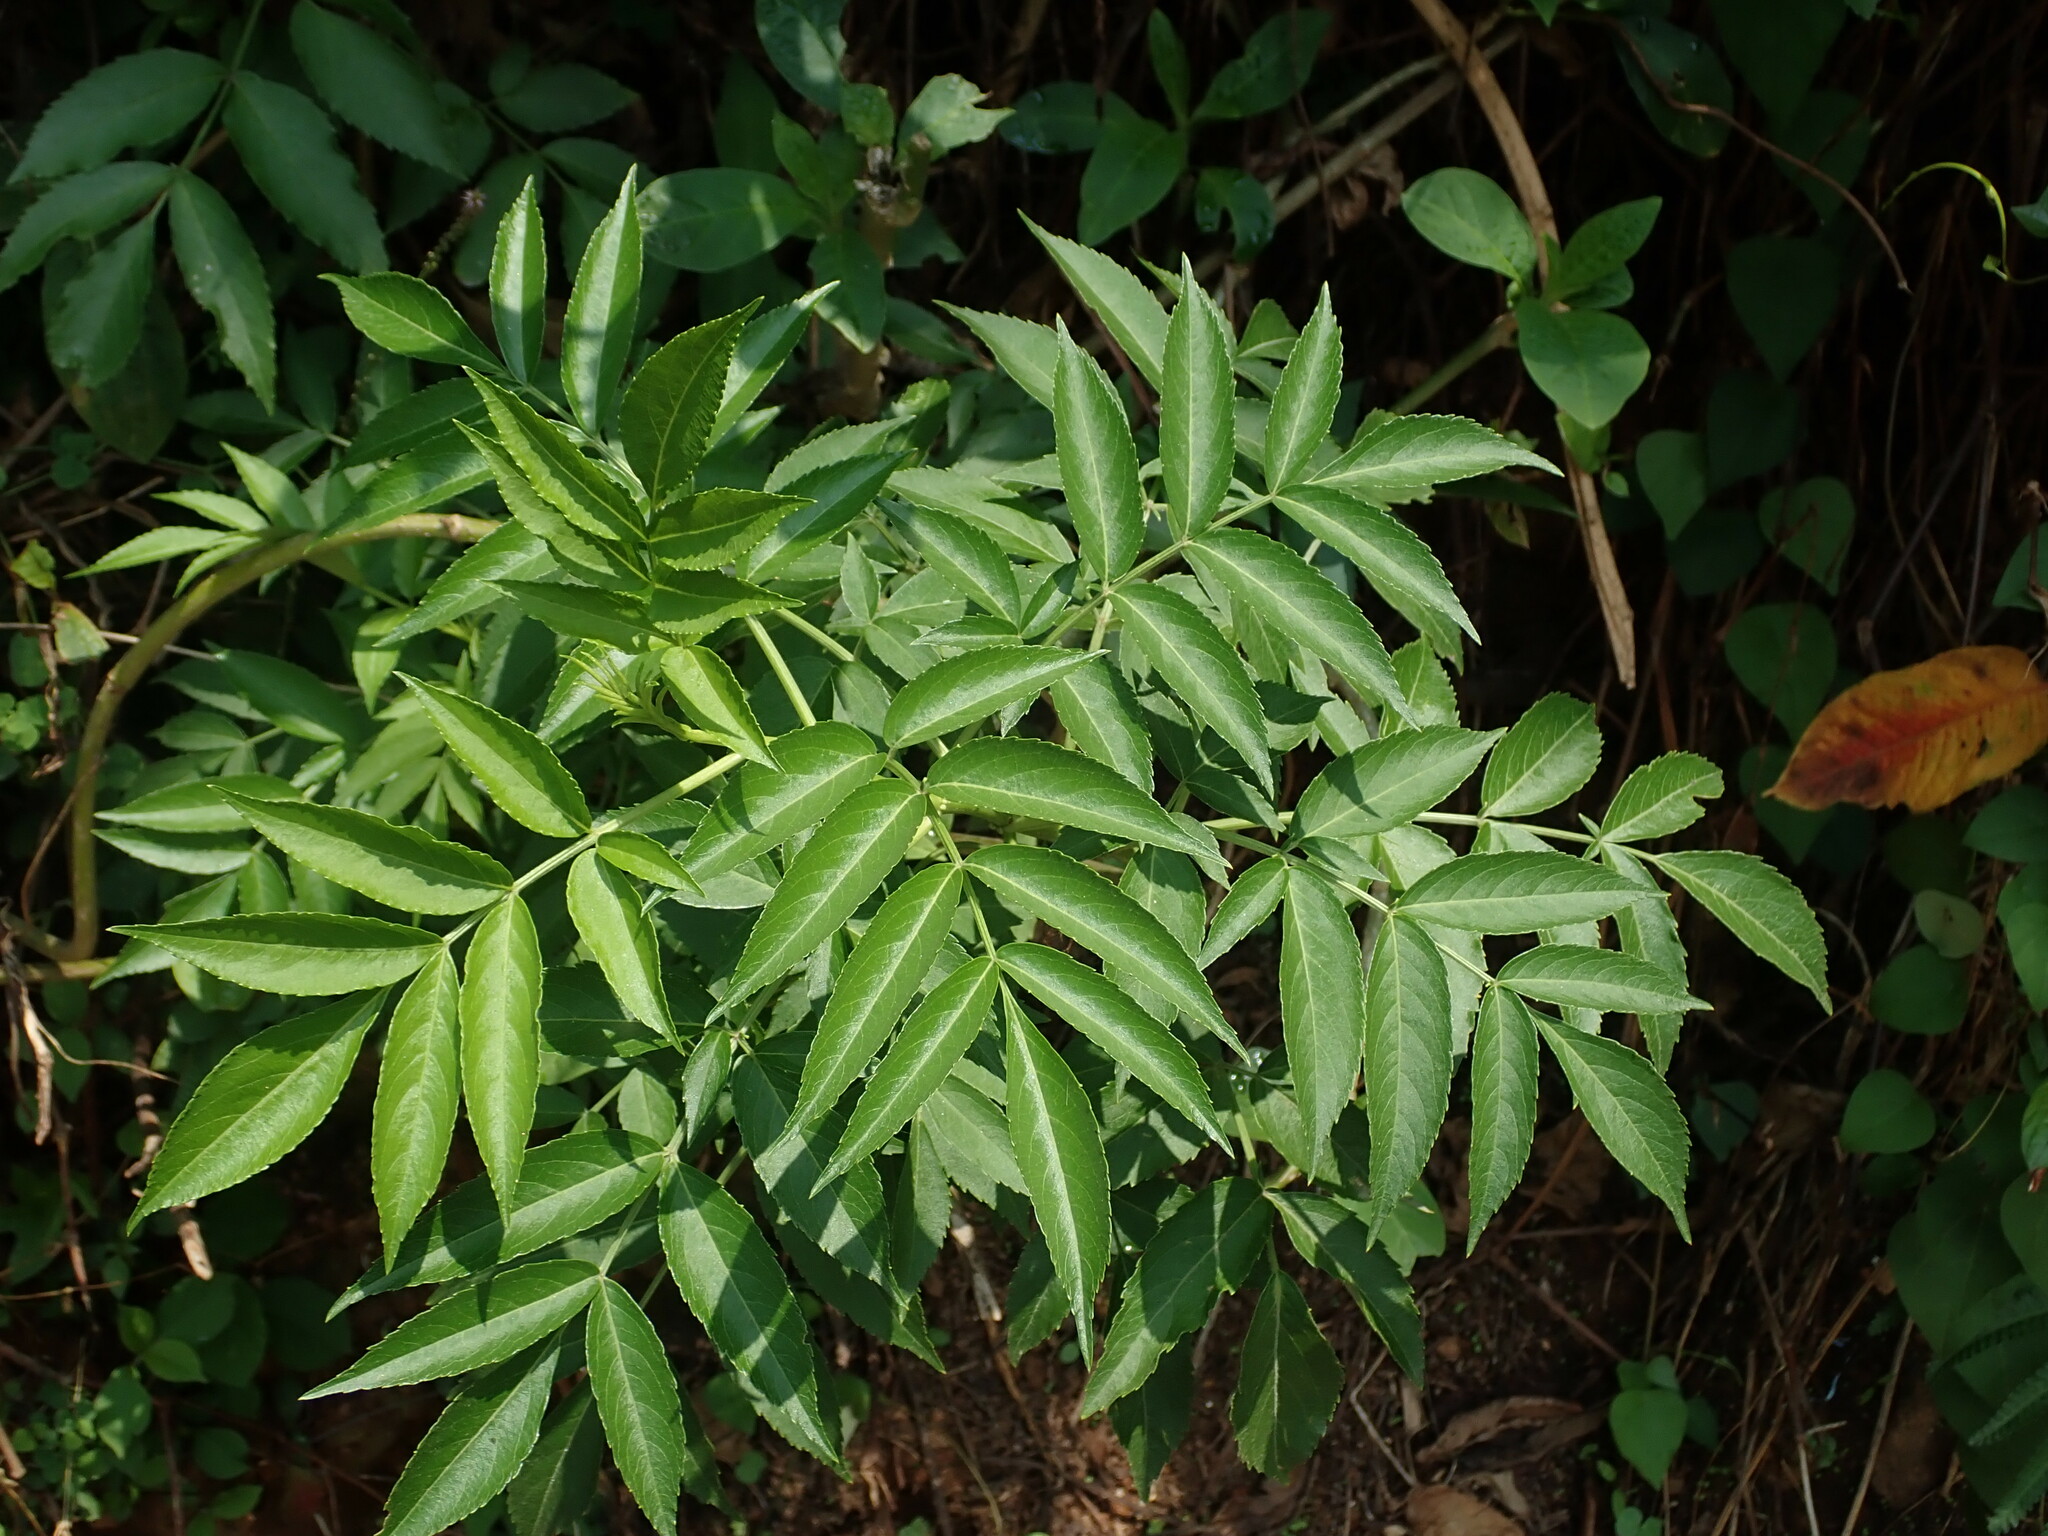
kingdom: Plantae
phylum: Tracheophyta
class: Magnoliopsida
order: Dipsacales
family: Viburnaceae
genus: Sambucus
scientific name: Sambucus canadensis
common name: American elder
